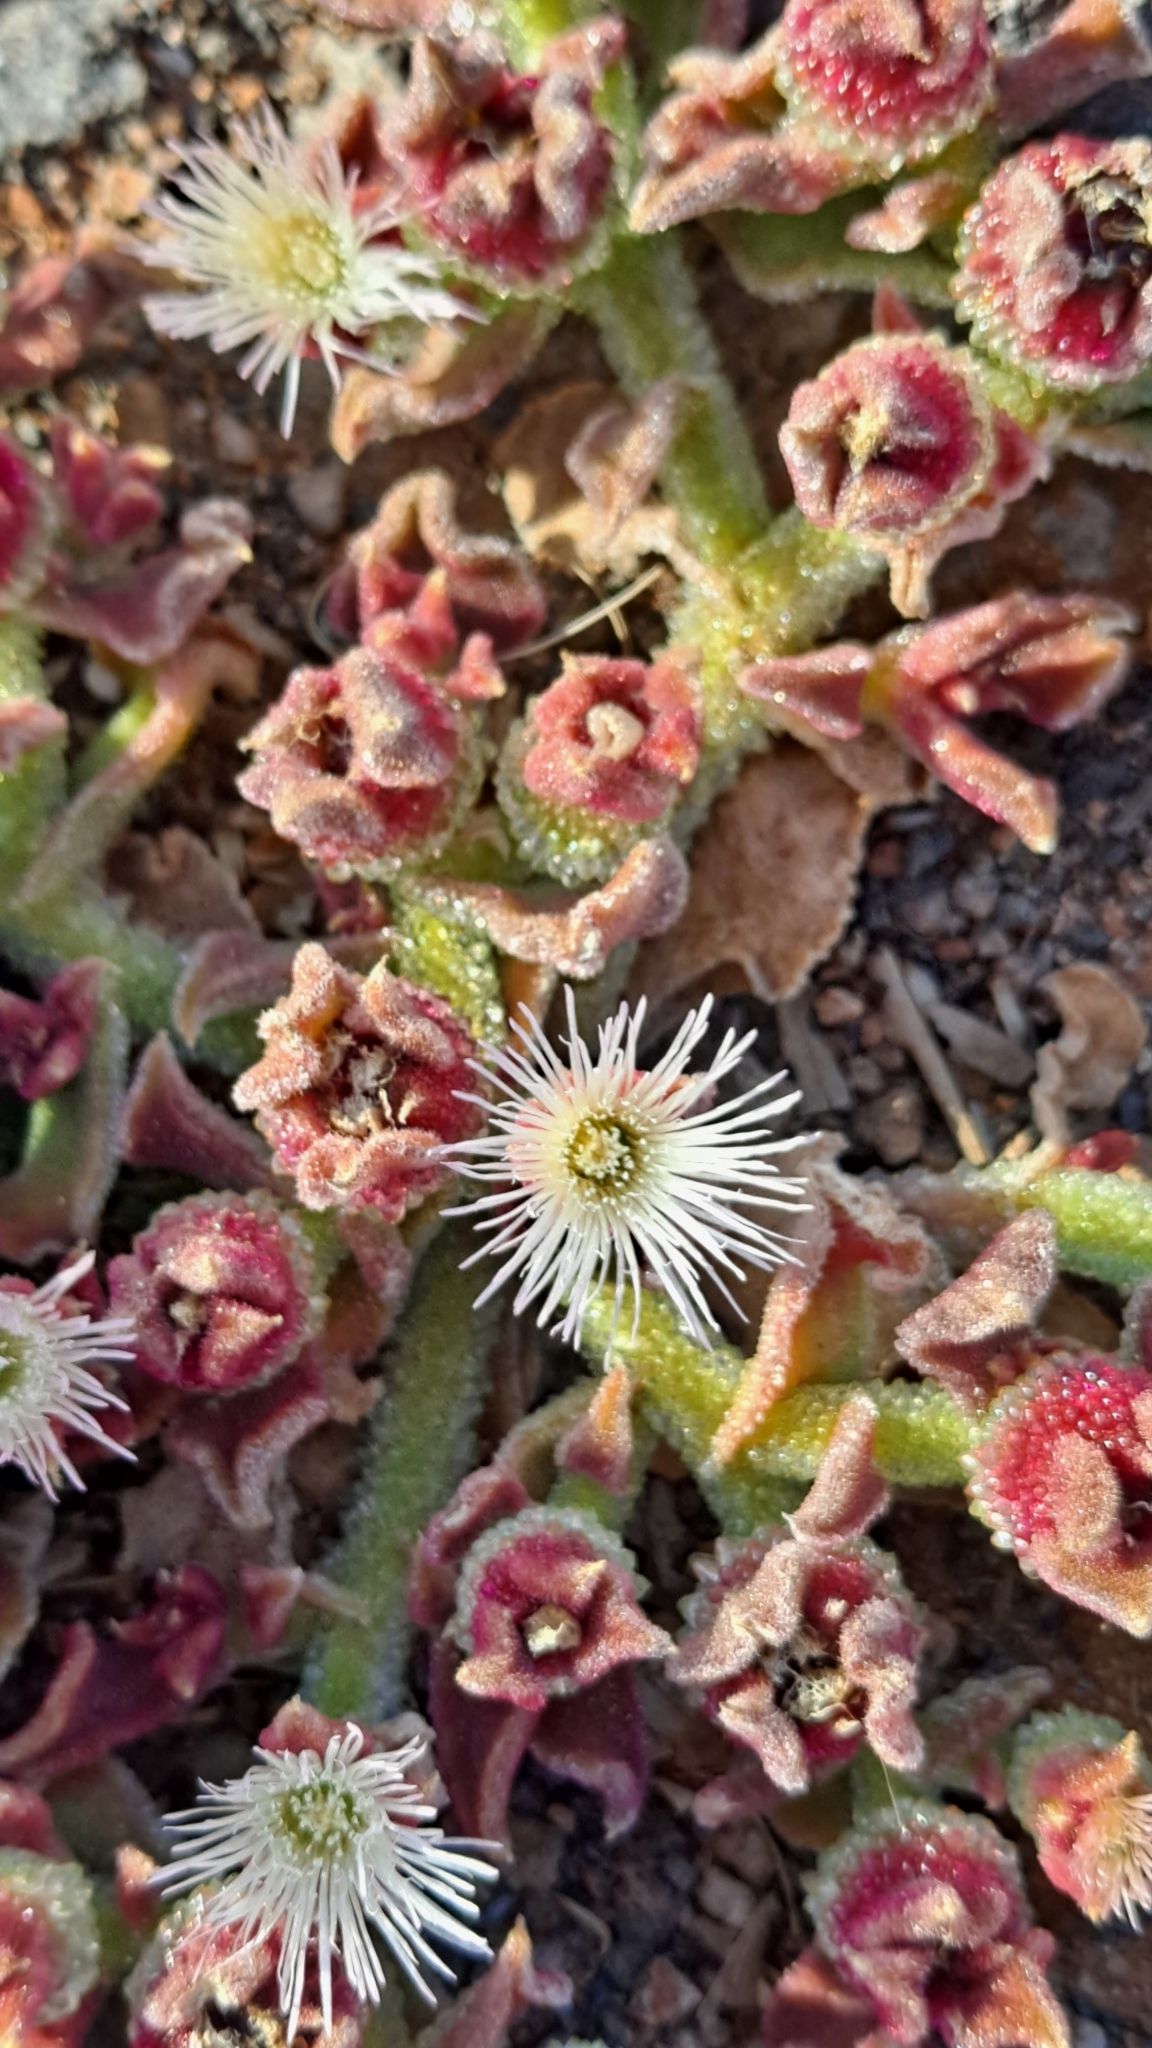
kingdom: Plantae
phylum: Tracheophyta
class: Magnoliopsida
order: Caryophyllales
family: Aizoaceae
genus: Mesembryanthemum
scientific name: Mesembryanthemum crystallinum
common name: Common iceplant
